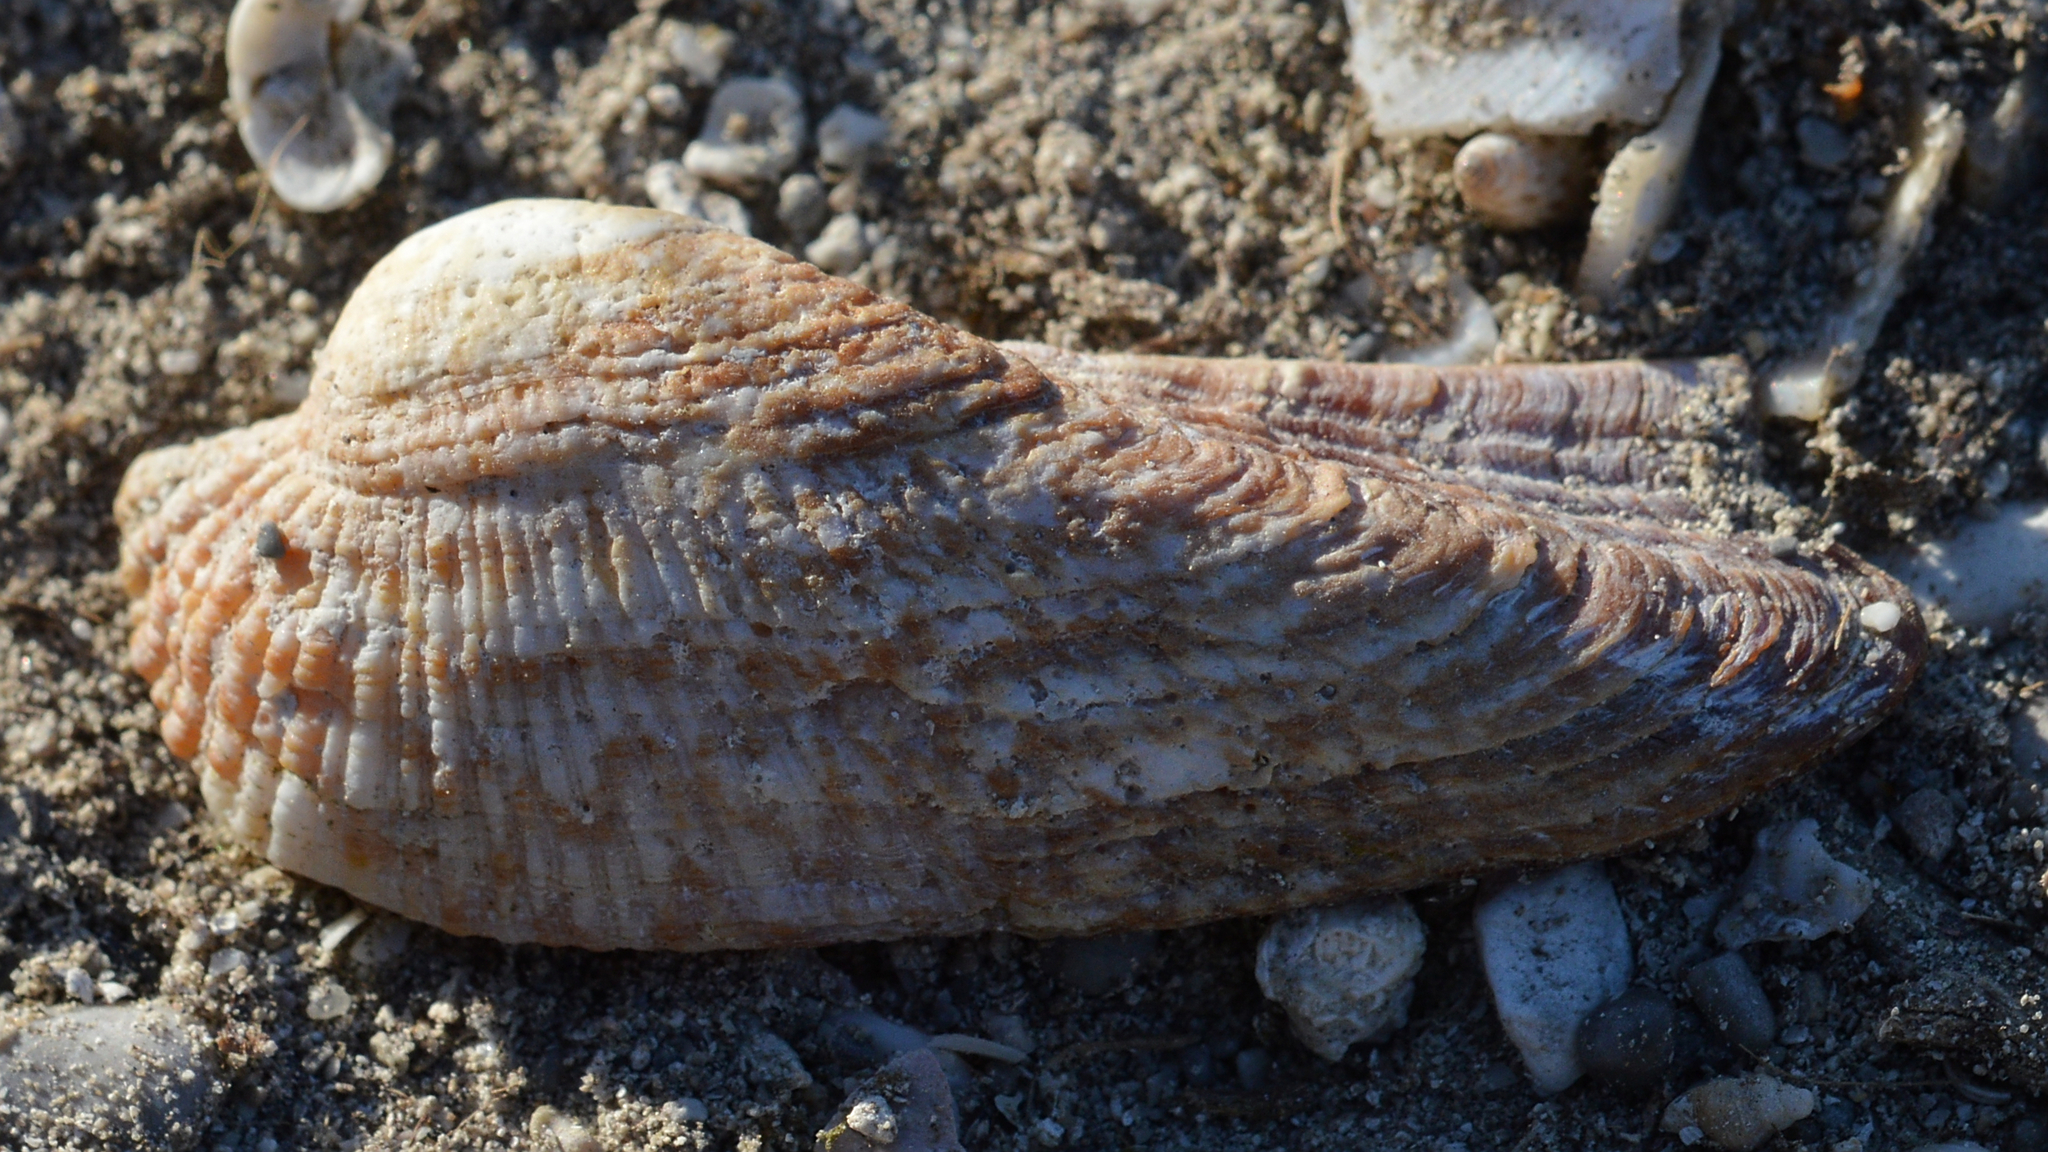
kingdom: Animalia
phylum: Mollusca
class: Bivalvia
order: Arcida
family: Arcidae
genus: Arca
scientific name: Arca noae
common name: Noah's arch
